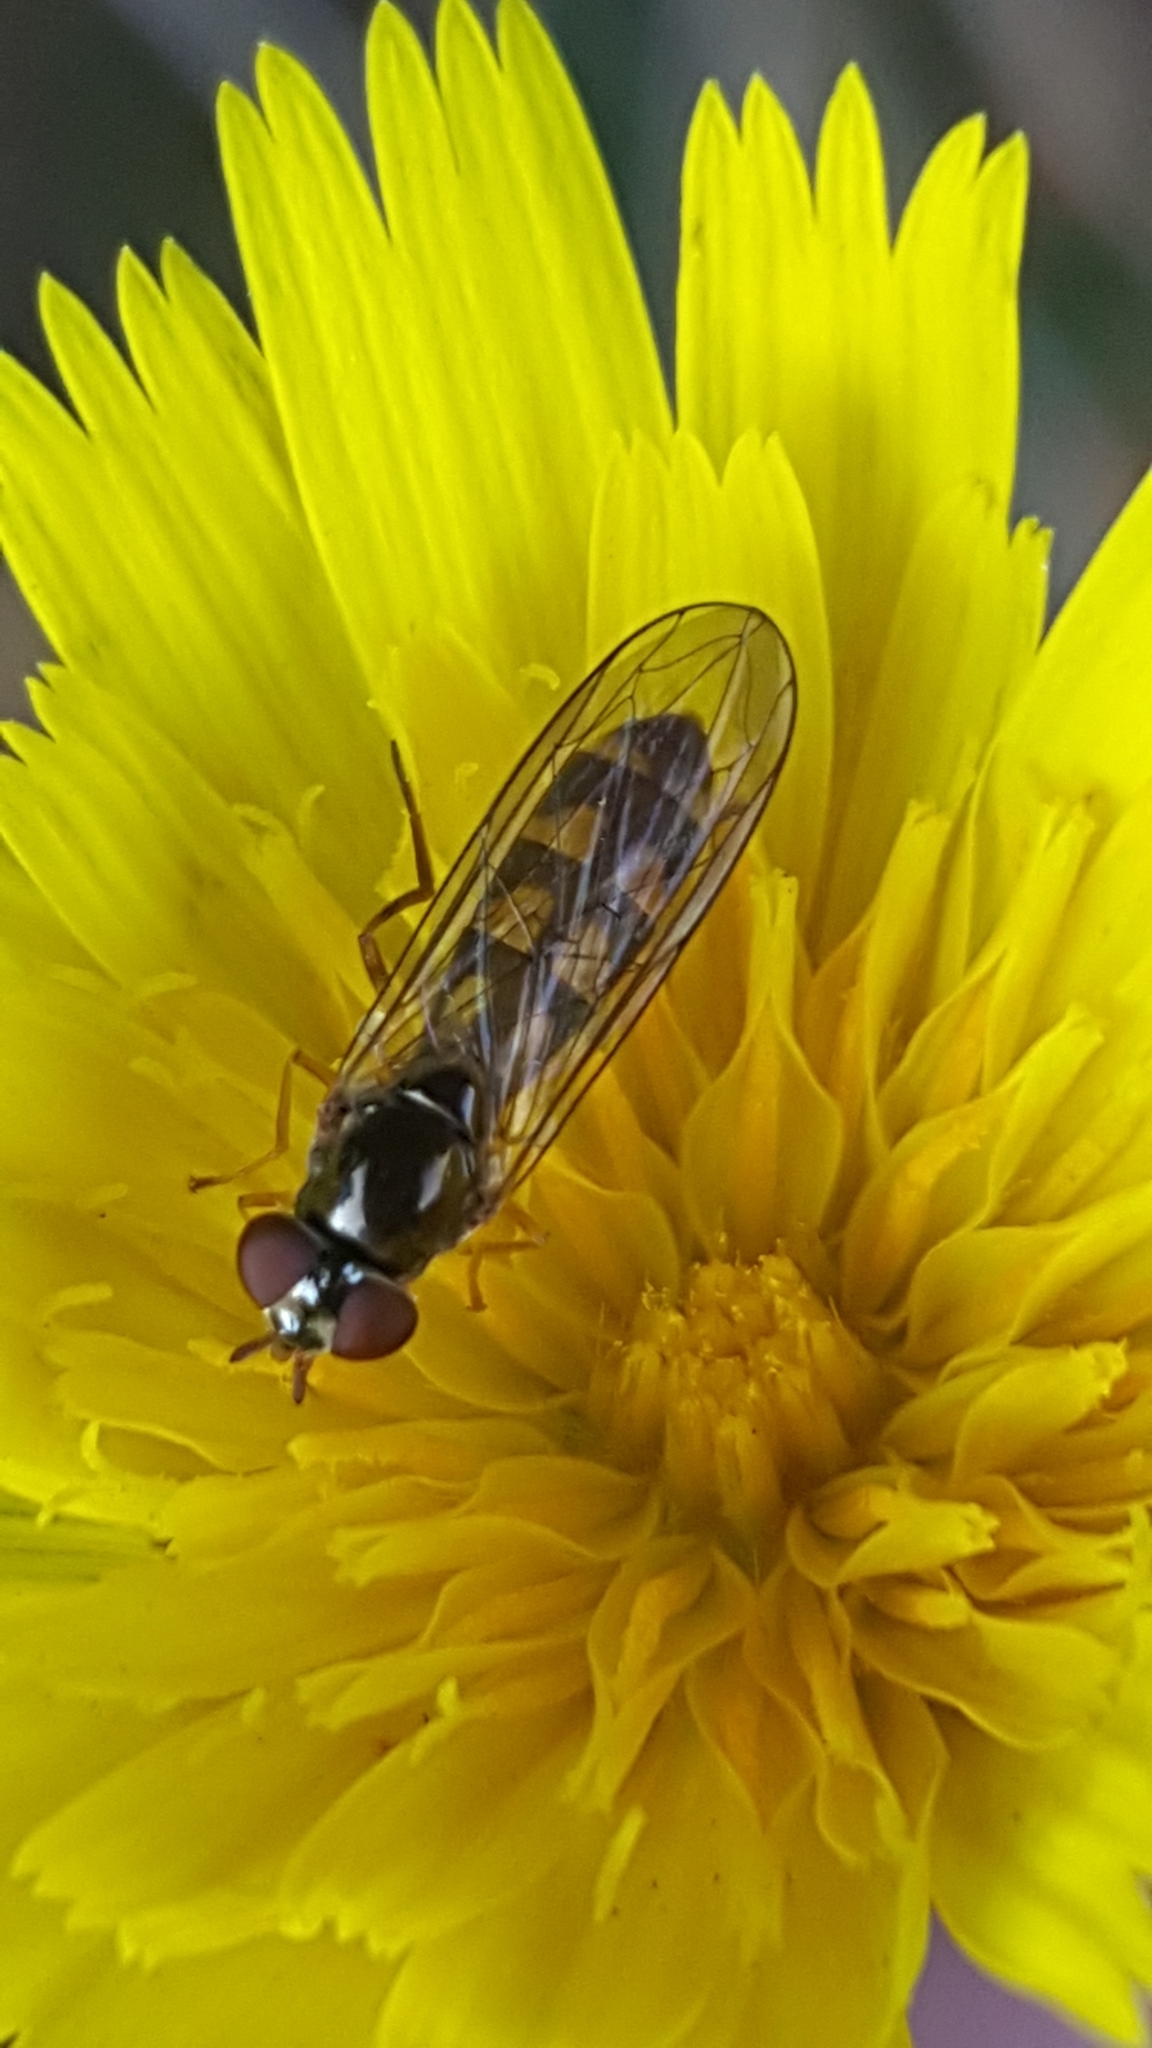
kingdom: Animalia
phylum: Arthropoda
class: Insecta
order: Diptera
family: Syrphidae
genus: Melanostoma
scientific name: Melanostoma mellina
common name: Hover fly
